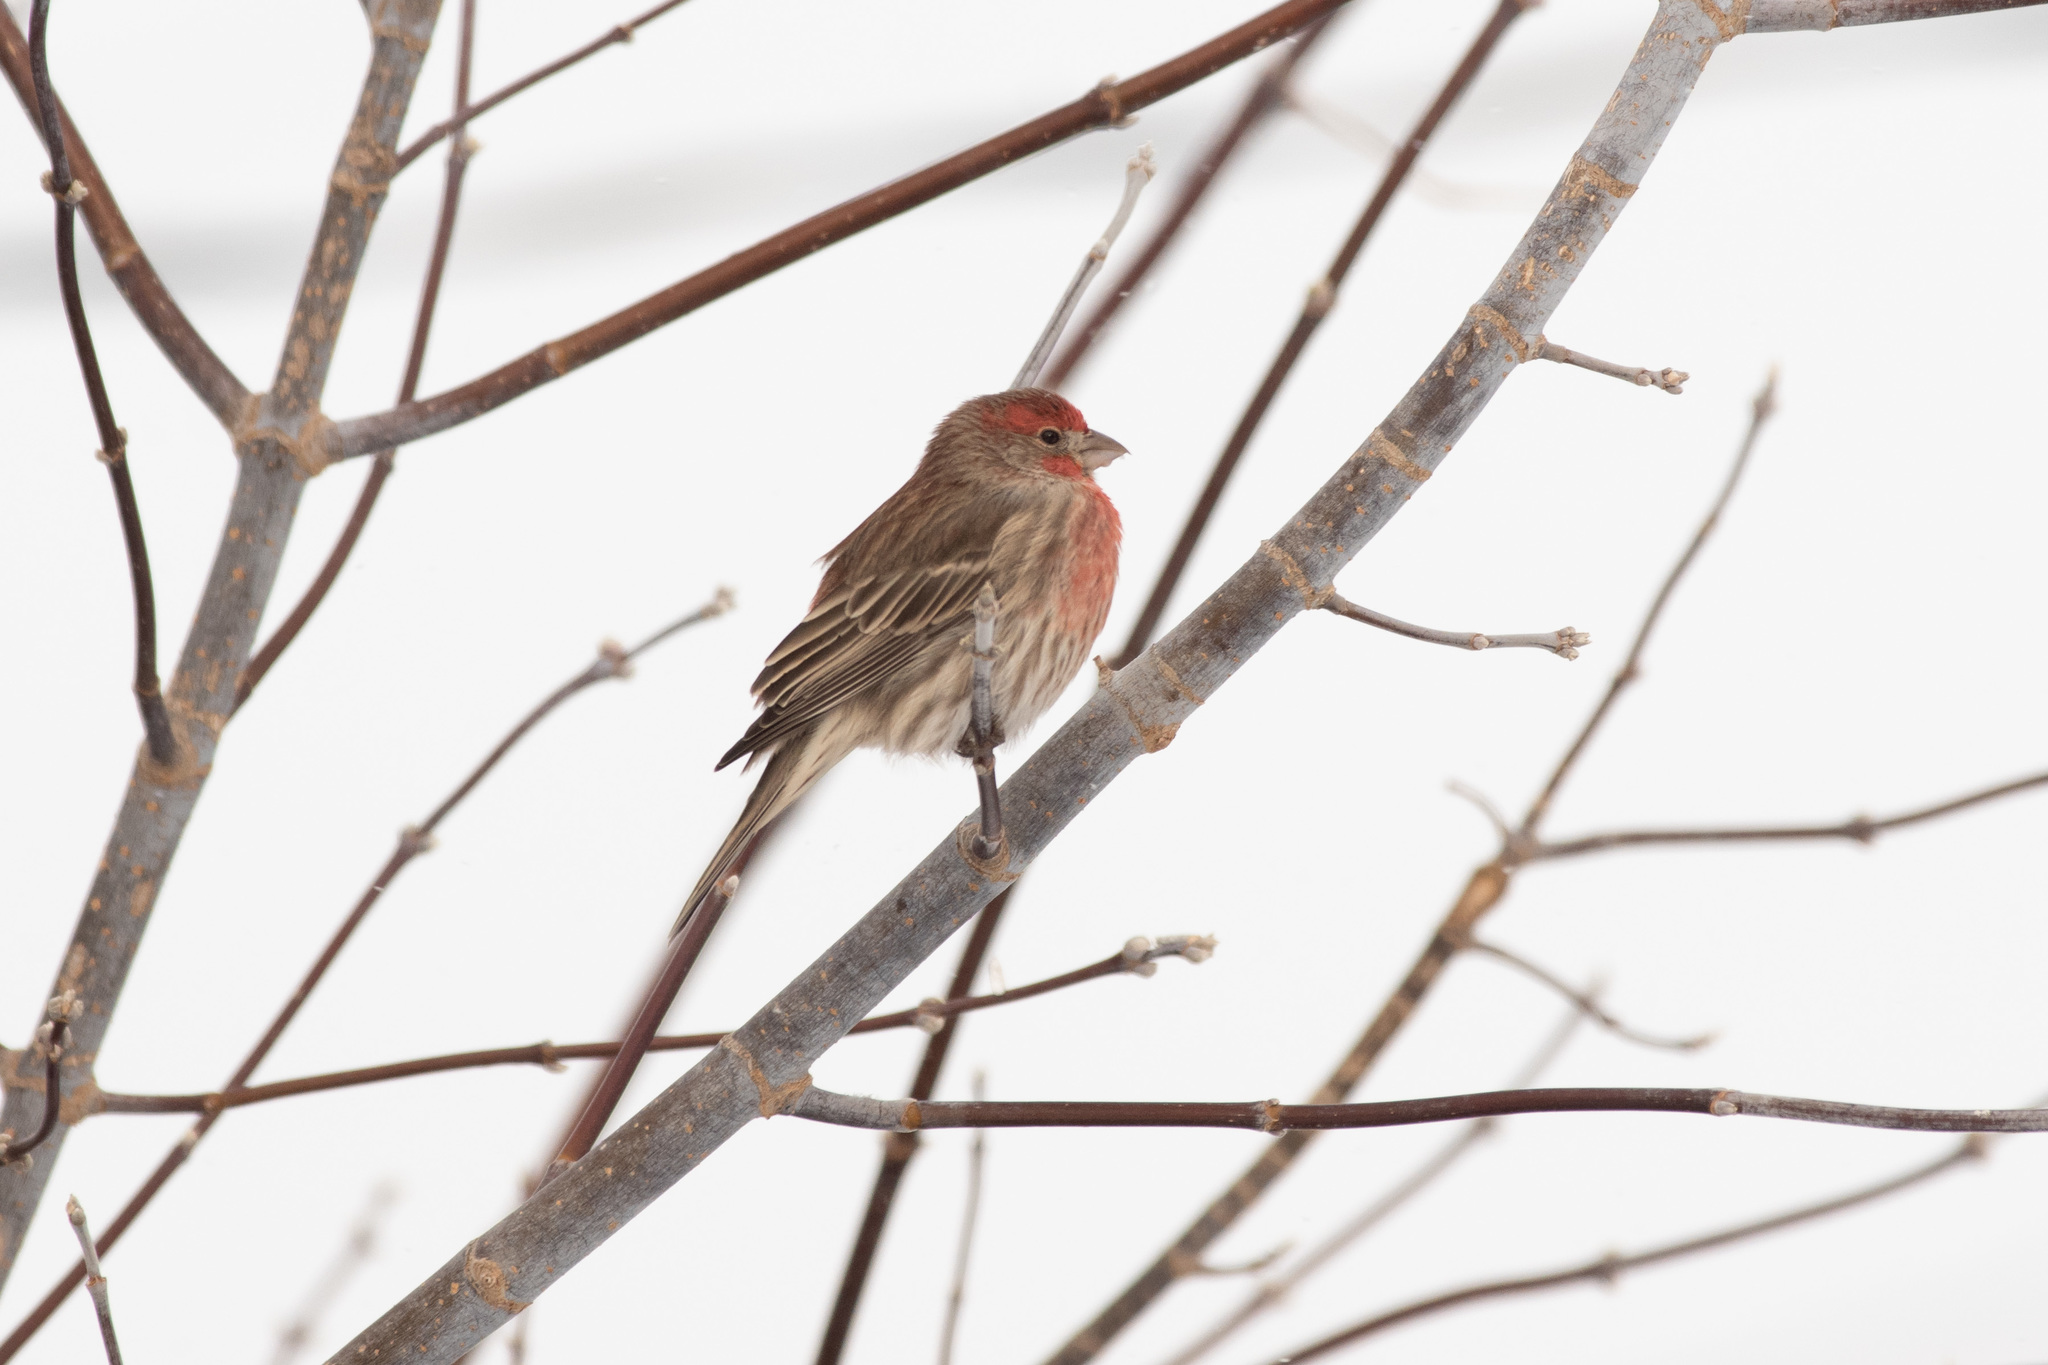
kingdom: Animalia
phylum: Chordata
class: Aves
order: Passeriformes
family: Fringillidae
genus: Haemorhous
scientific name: Haemorhous mexicanus
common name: House finch
